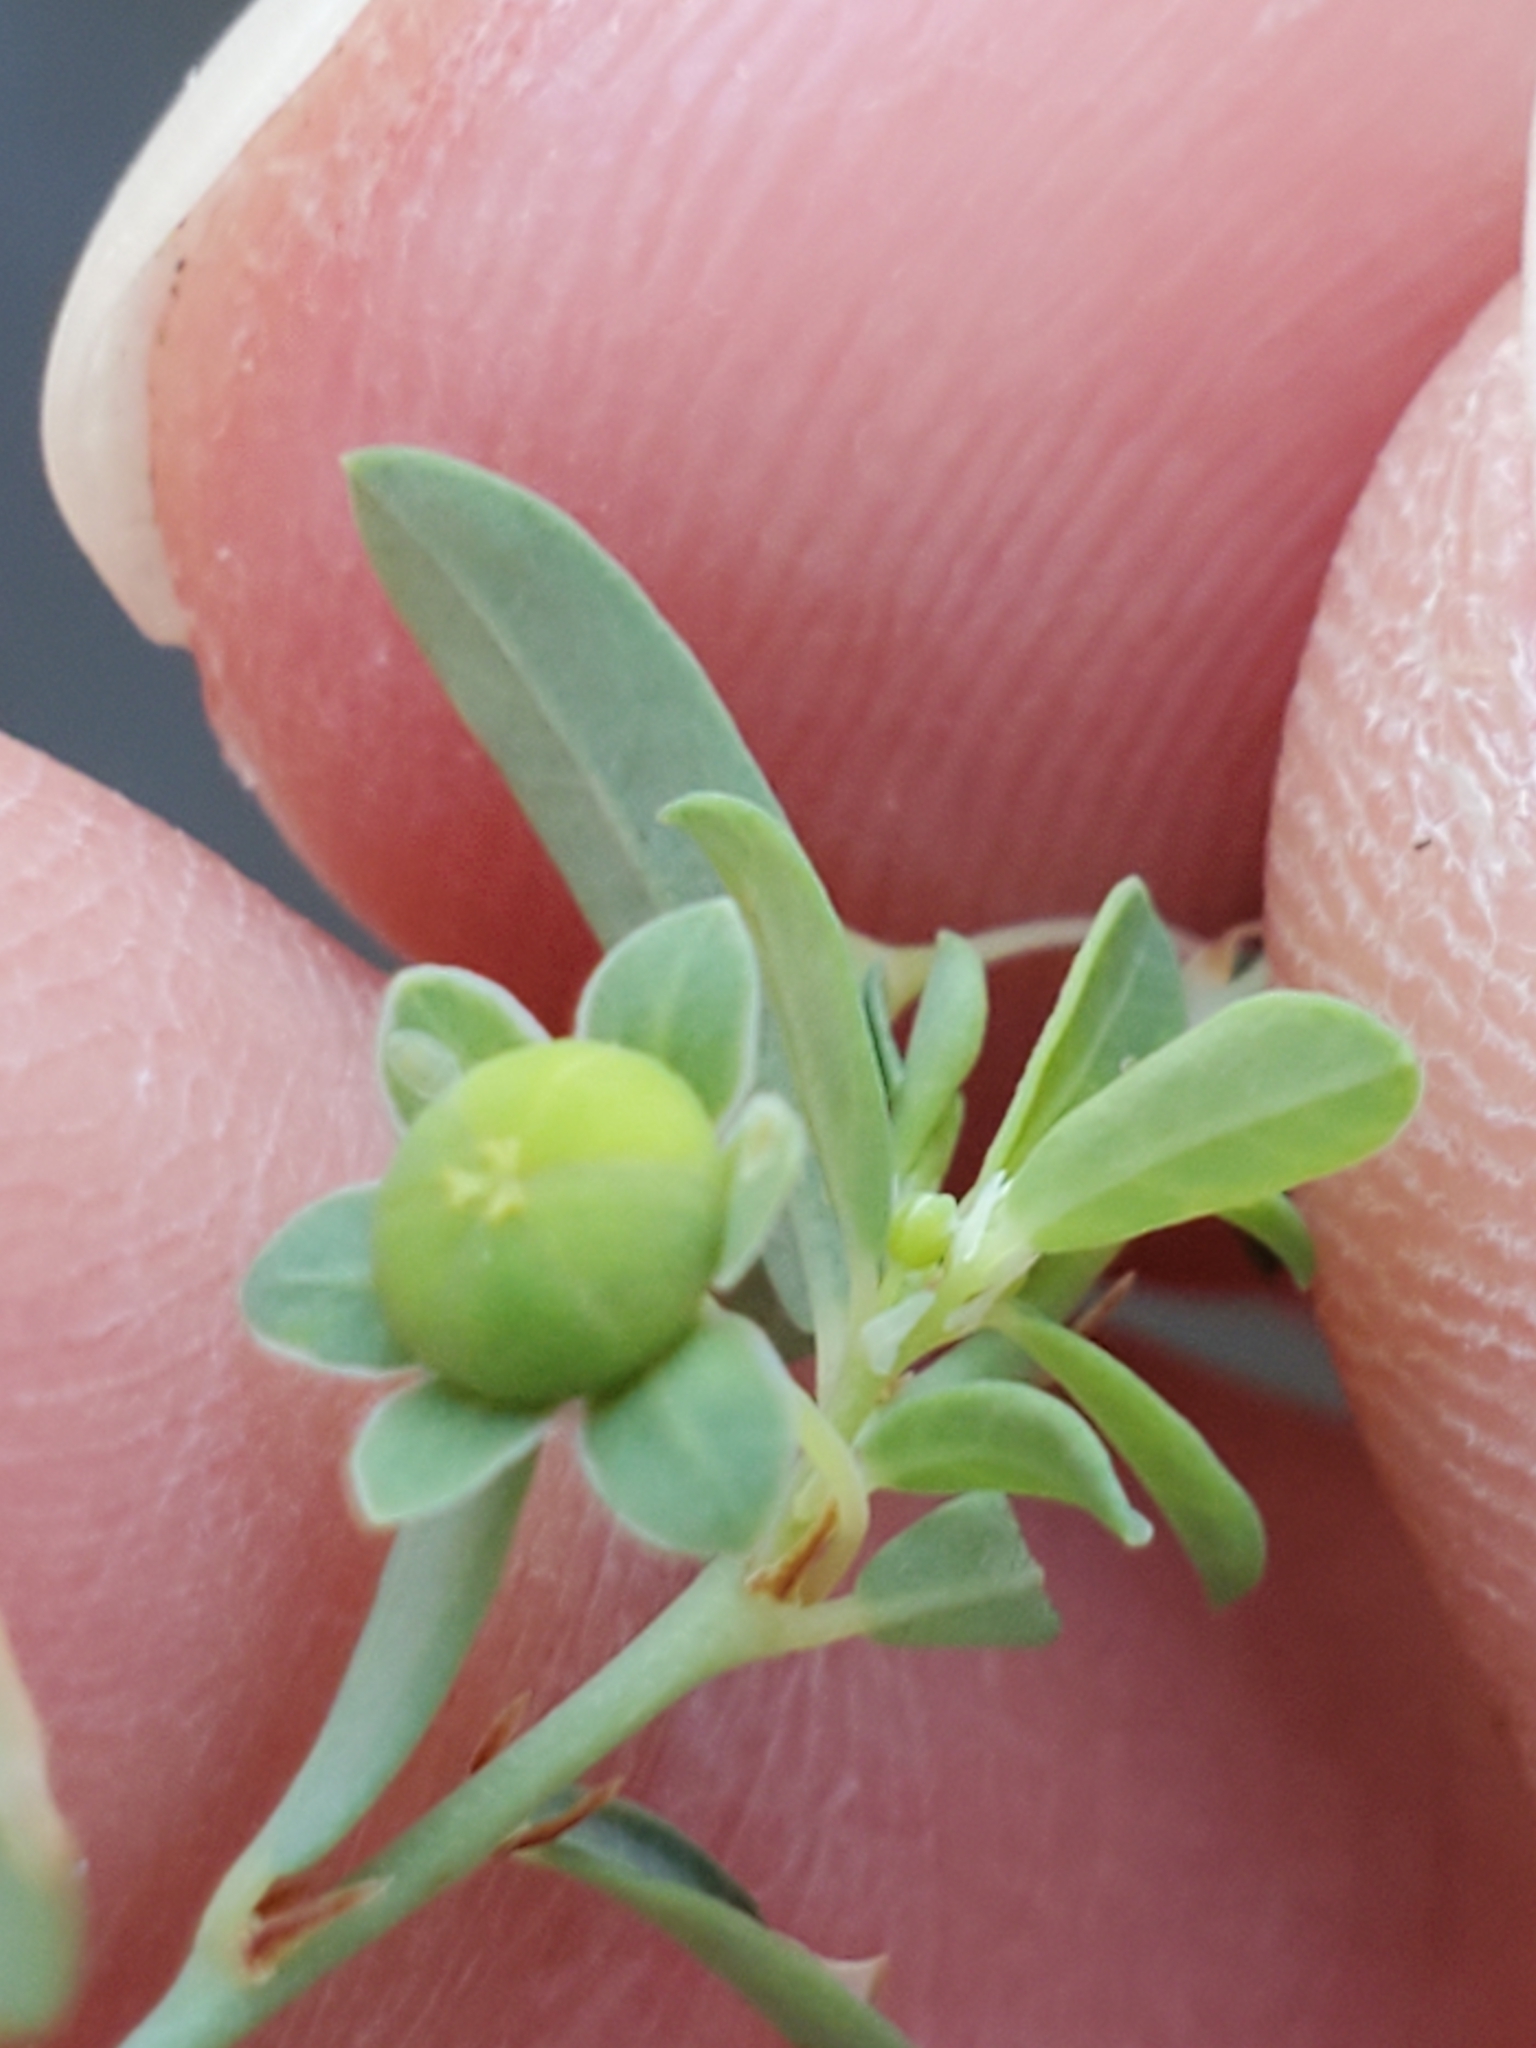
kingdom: Plantae
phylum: Tracheophyta
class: Magnoliopsida
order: Malpighiales
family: Phyllanthaceae
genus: Phyllanthus
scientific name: Phyllanthus polygonoides
